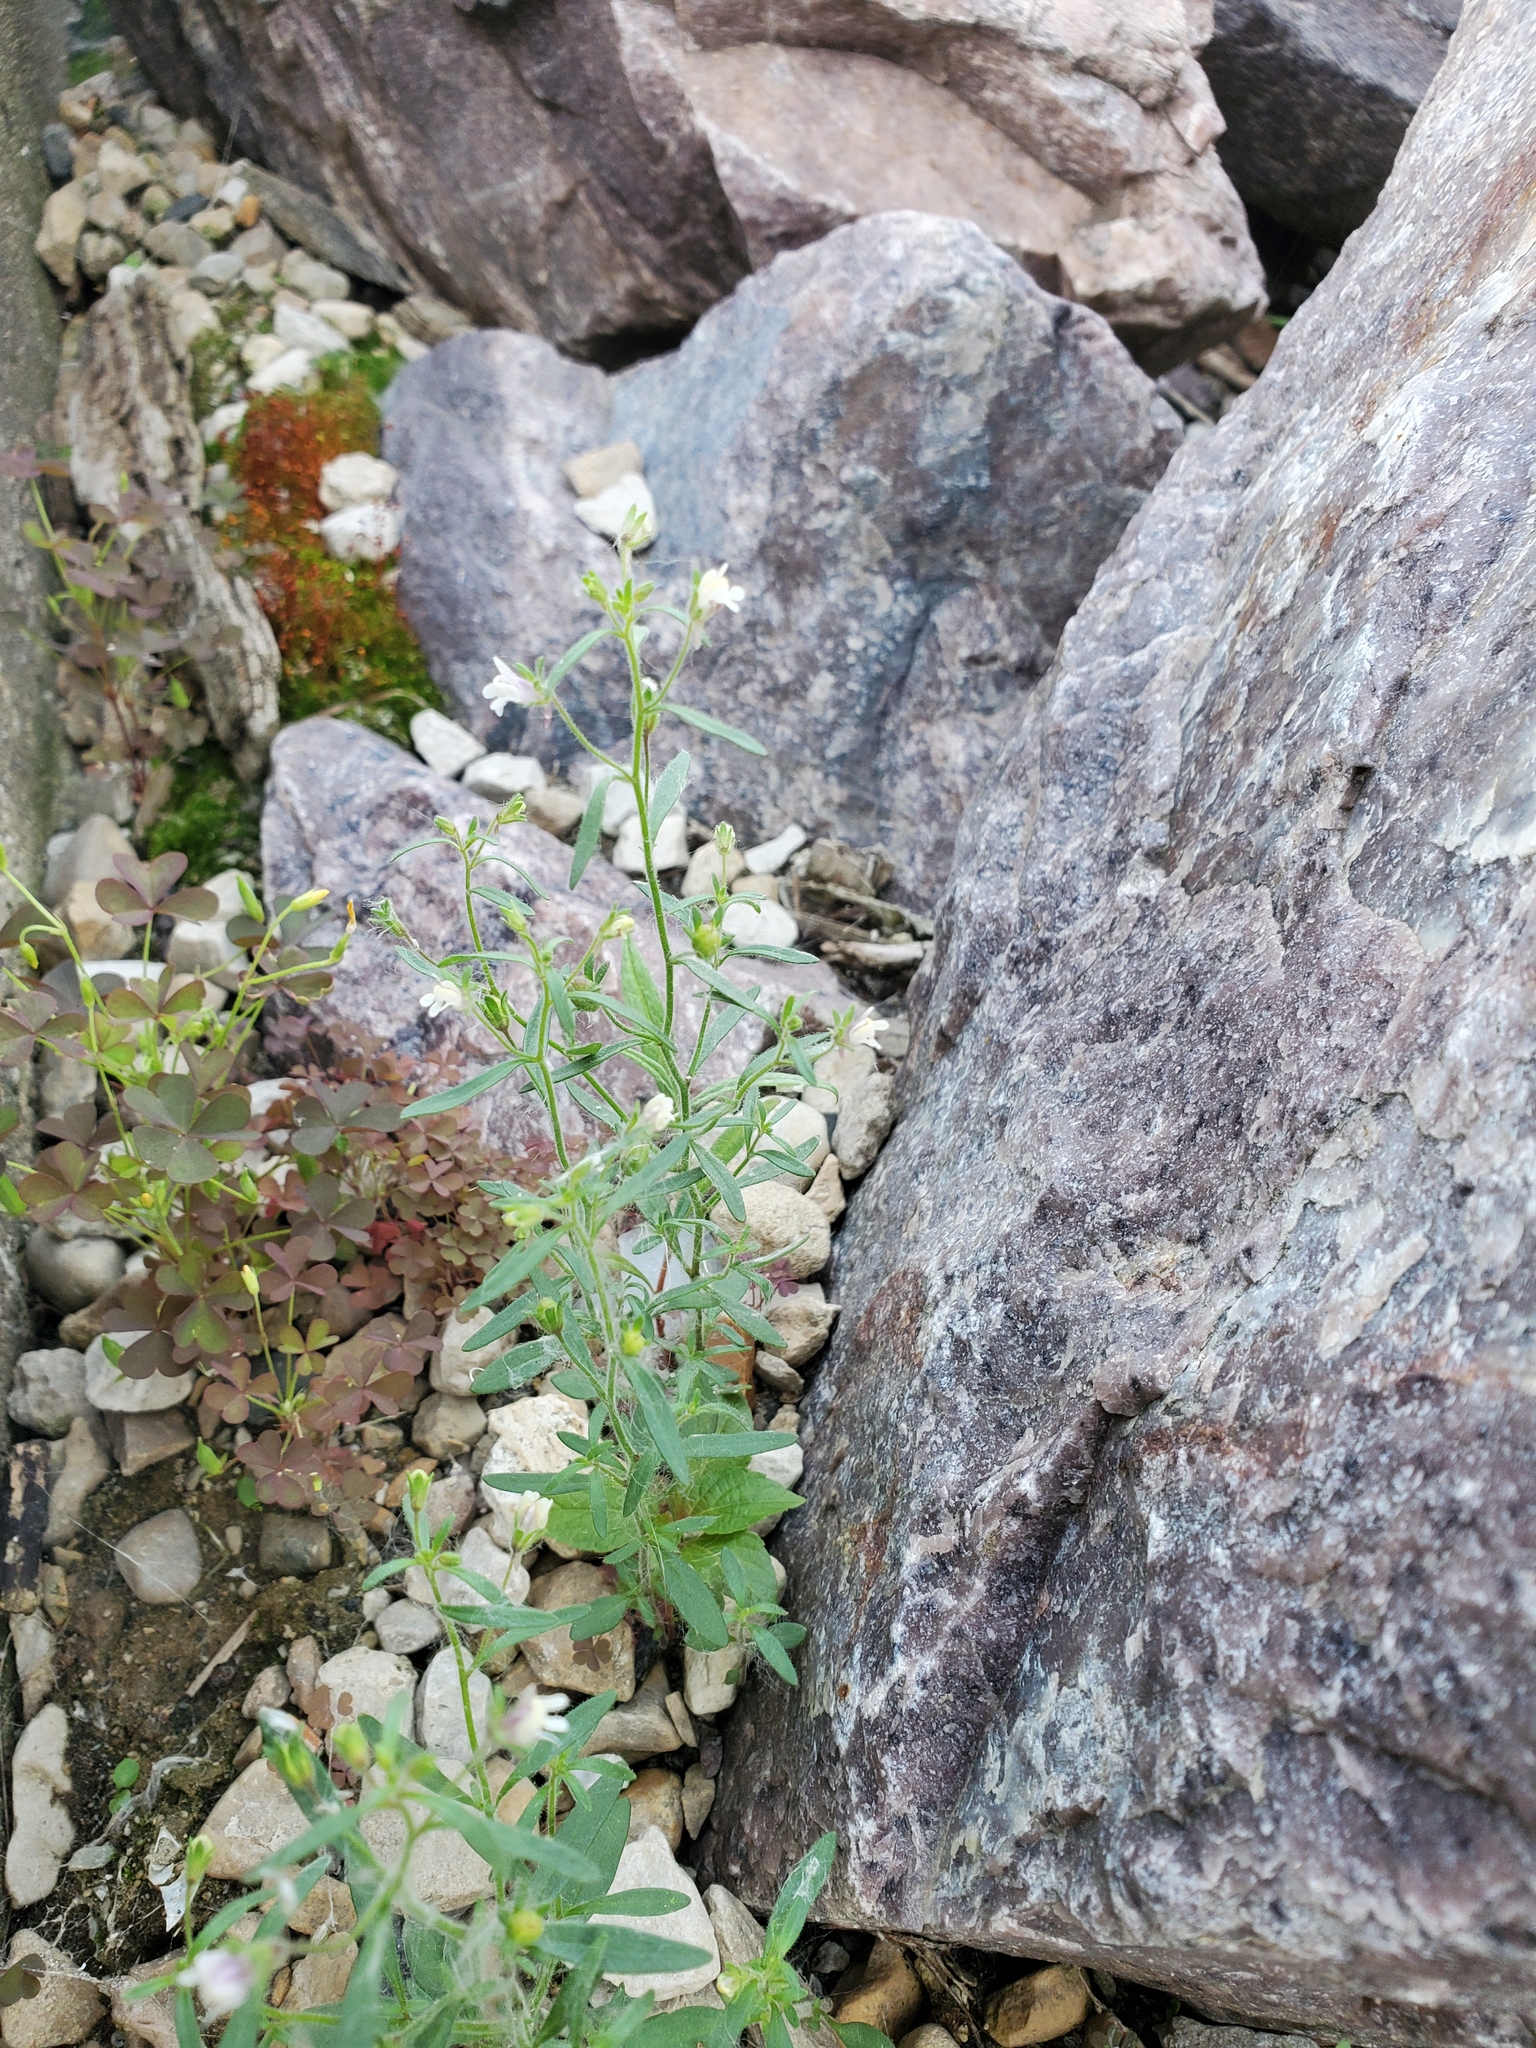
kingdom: Plantae
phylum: Tracheophyta
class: Magnoliopsida
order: Lamiales
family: Plantaginaceae
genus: Chaenorhinum
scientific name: Chaenorhinum minus
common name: Dwarf snapdragon
